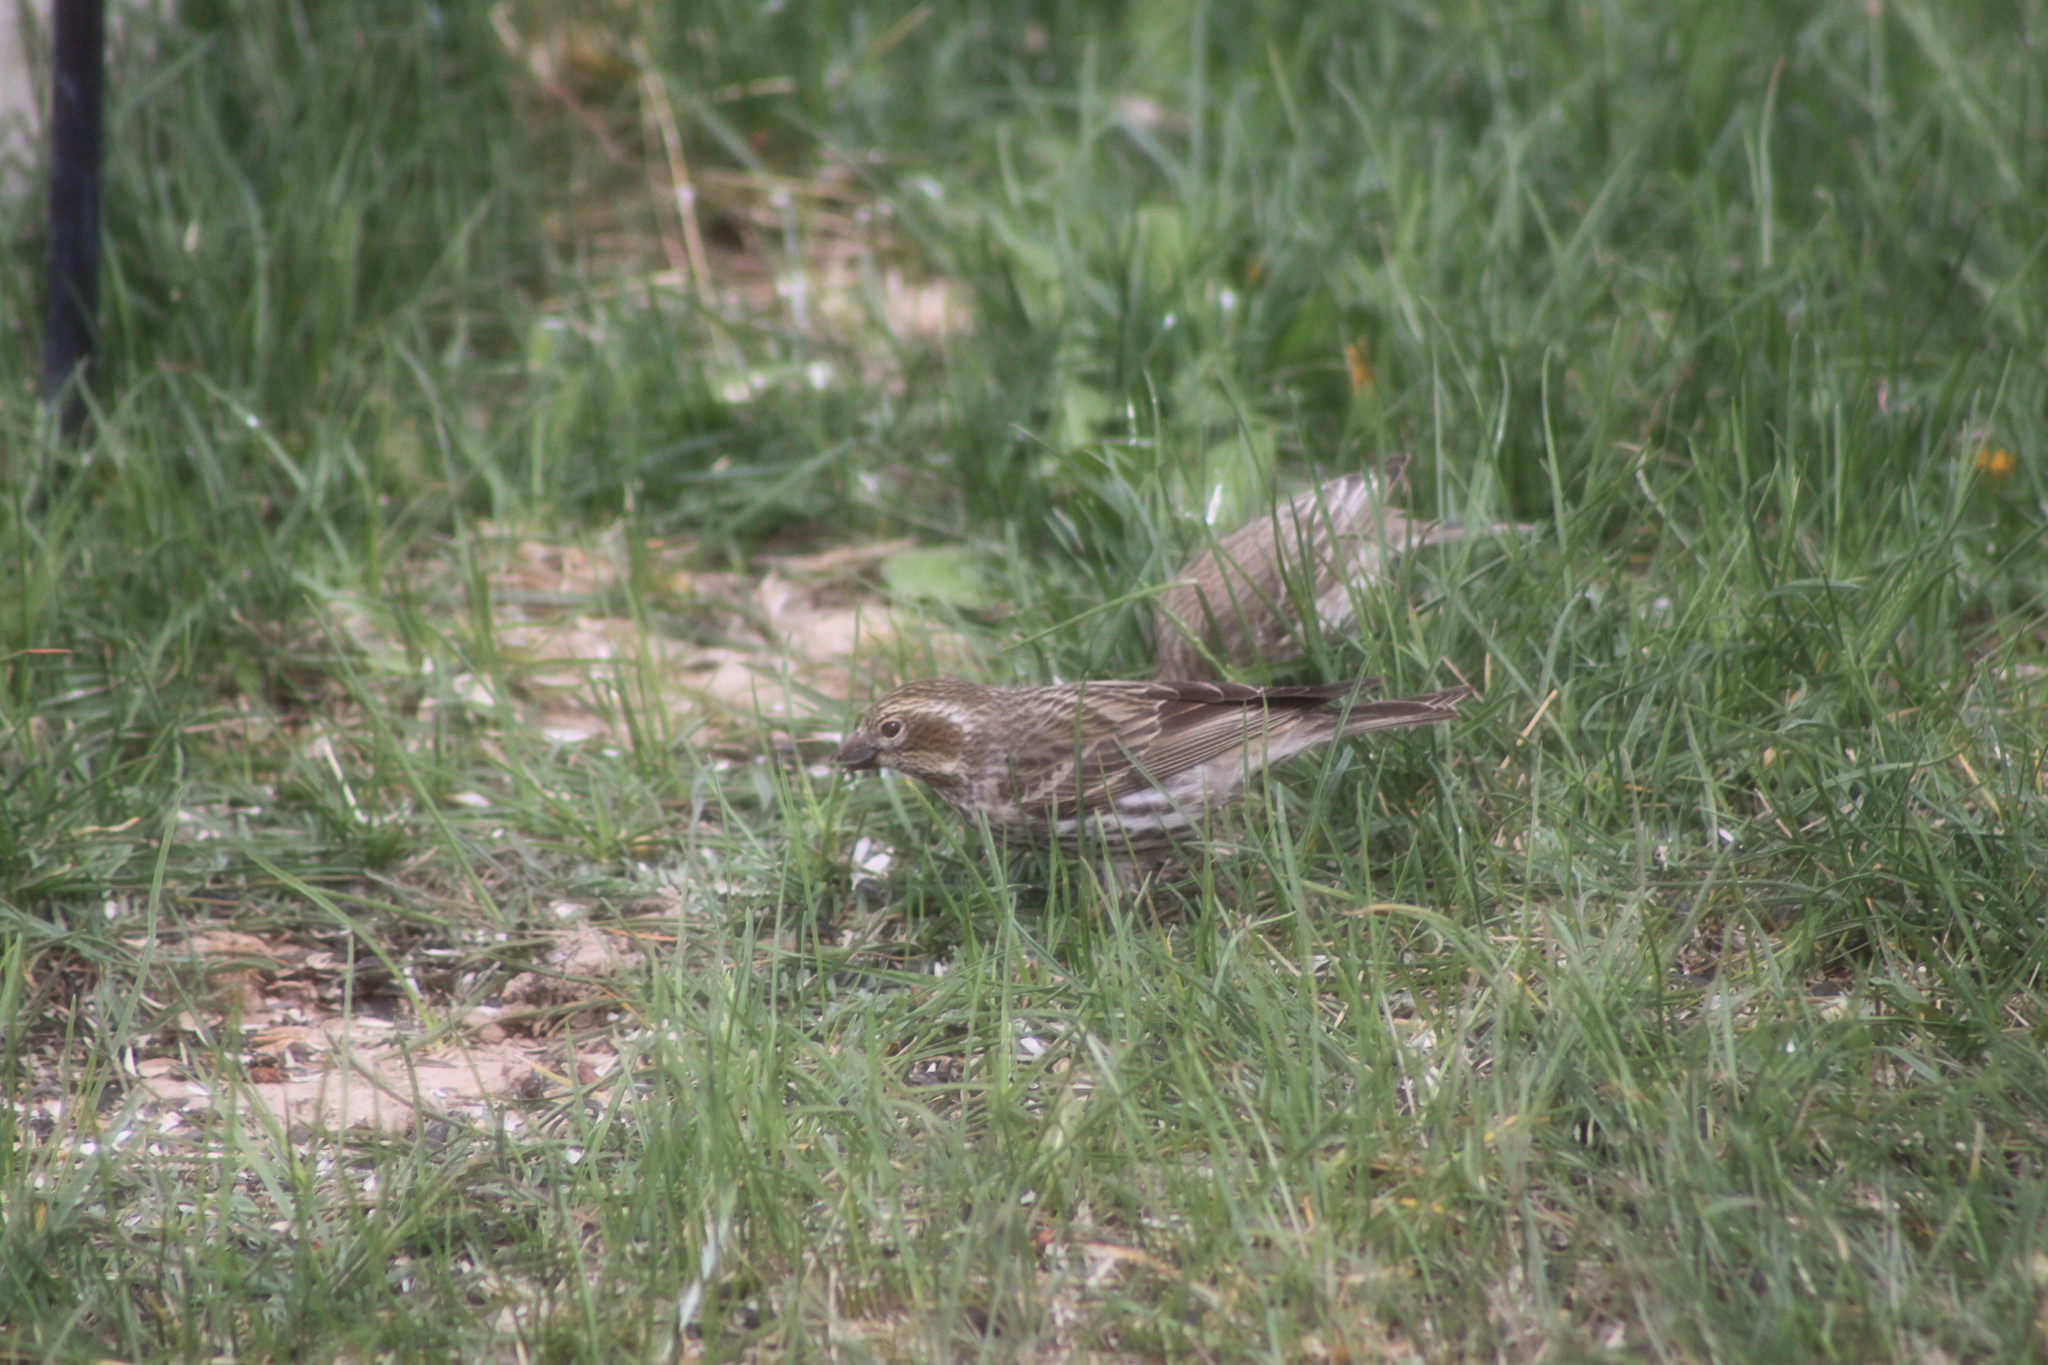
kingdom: Animalia
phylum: Chordata
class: Aves
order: Passeriformes
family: Fringillidae
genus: Haemorhous
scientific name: Haemorhous cassinii
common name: Cassin's finch
